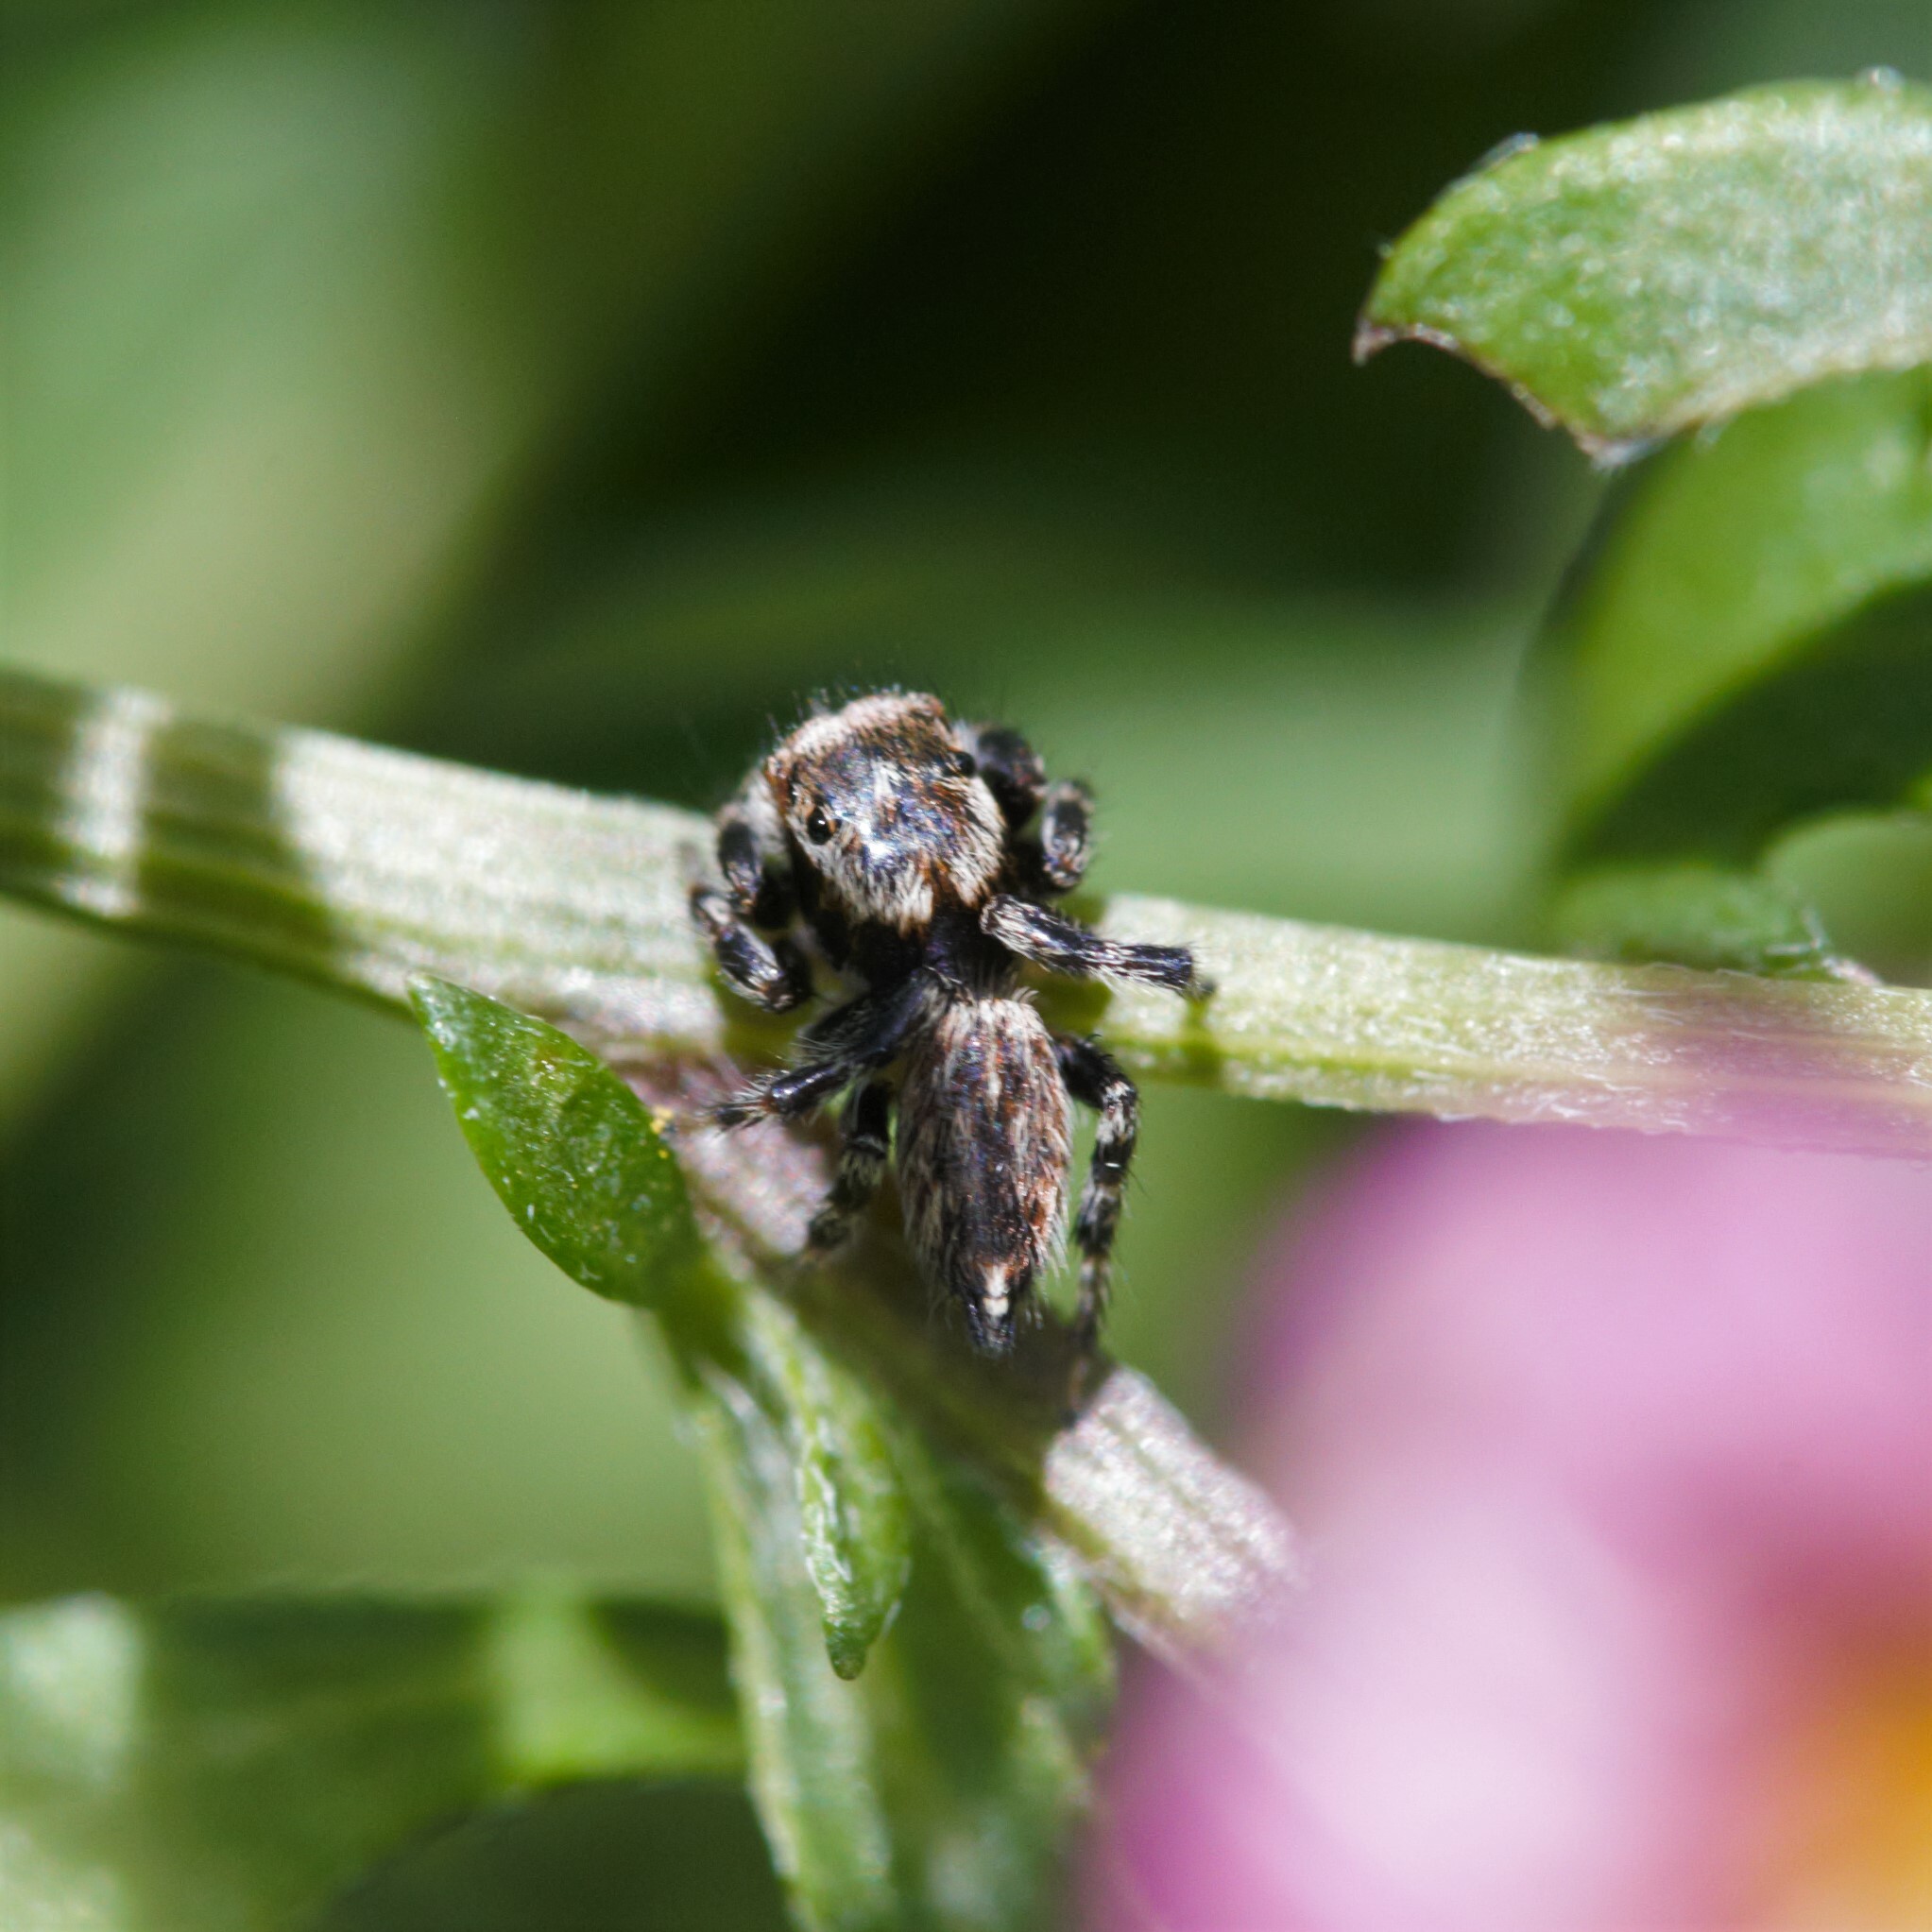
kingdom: Animalia
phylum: Arthropoda
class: Arachnida
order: Araneae
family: Salticidae
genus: Maratus
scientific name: Maratus griseus
